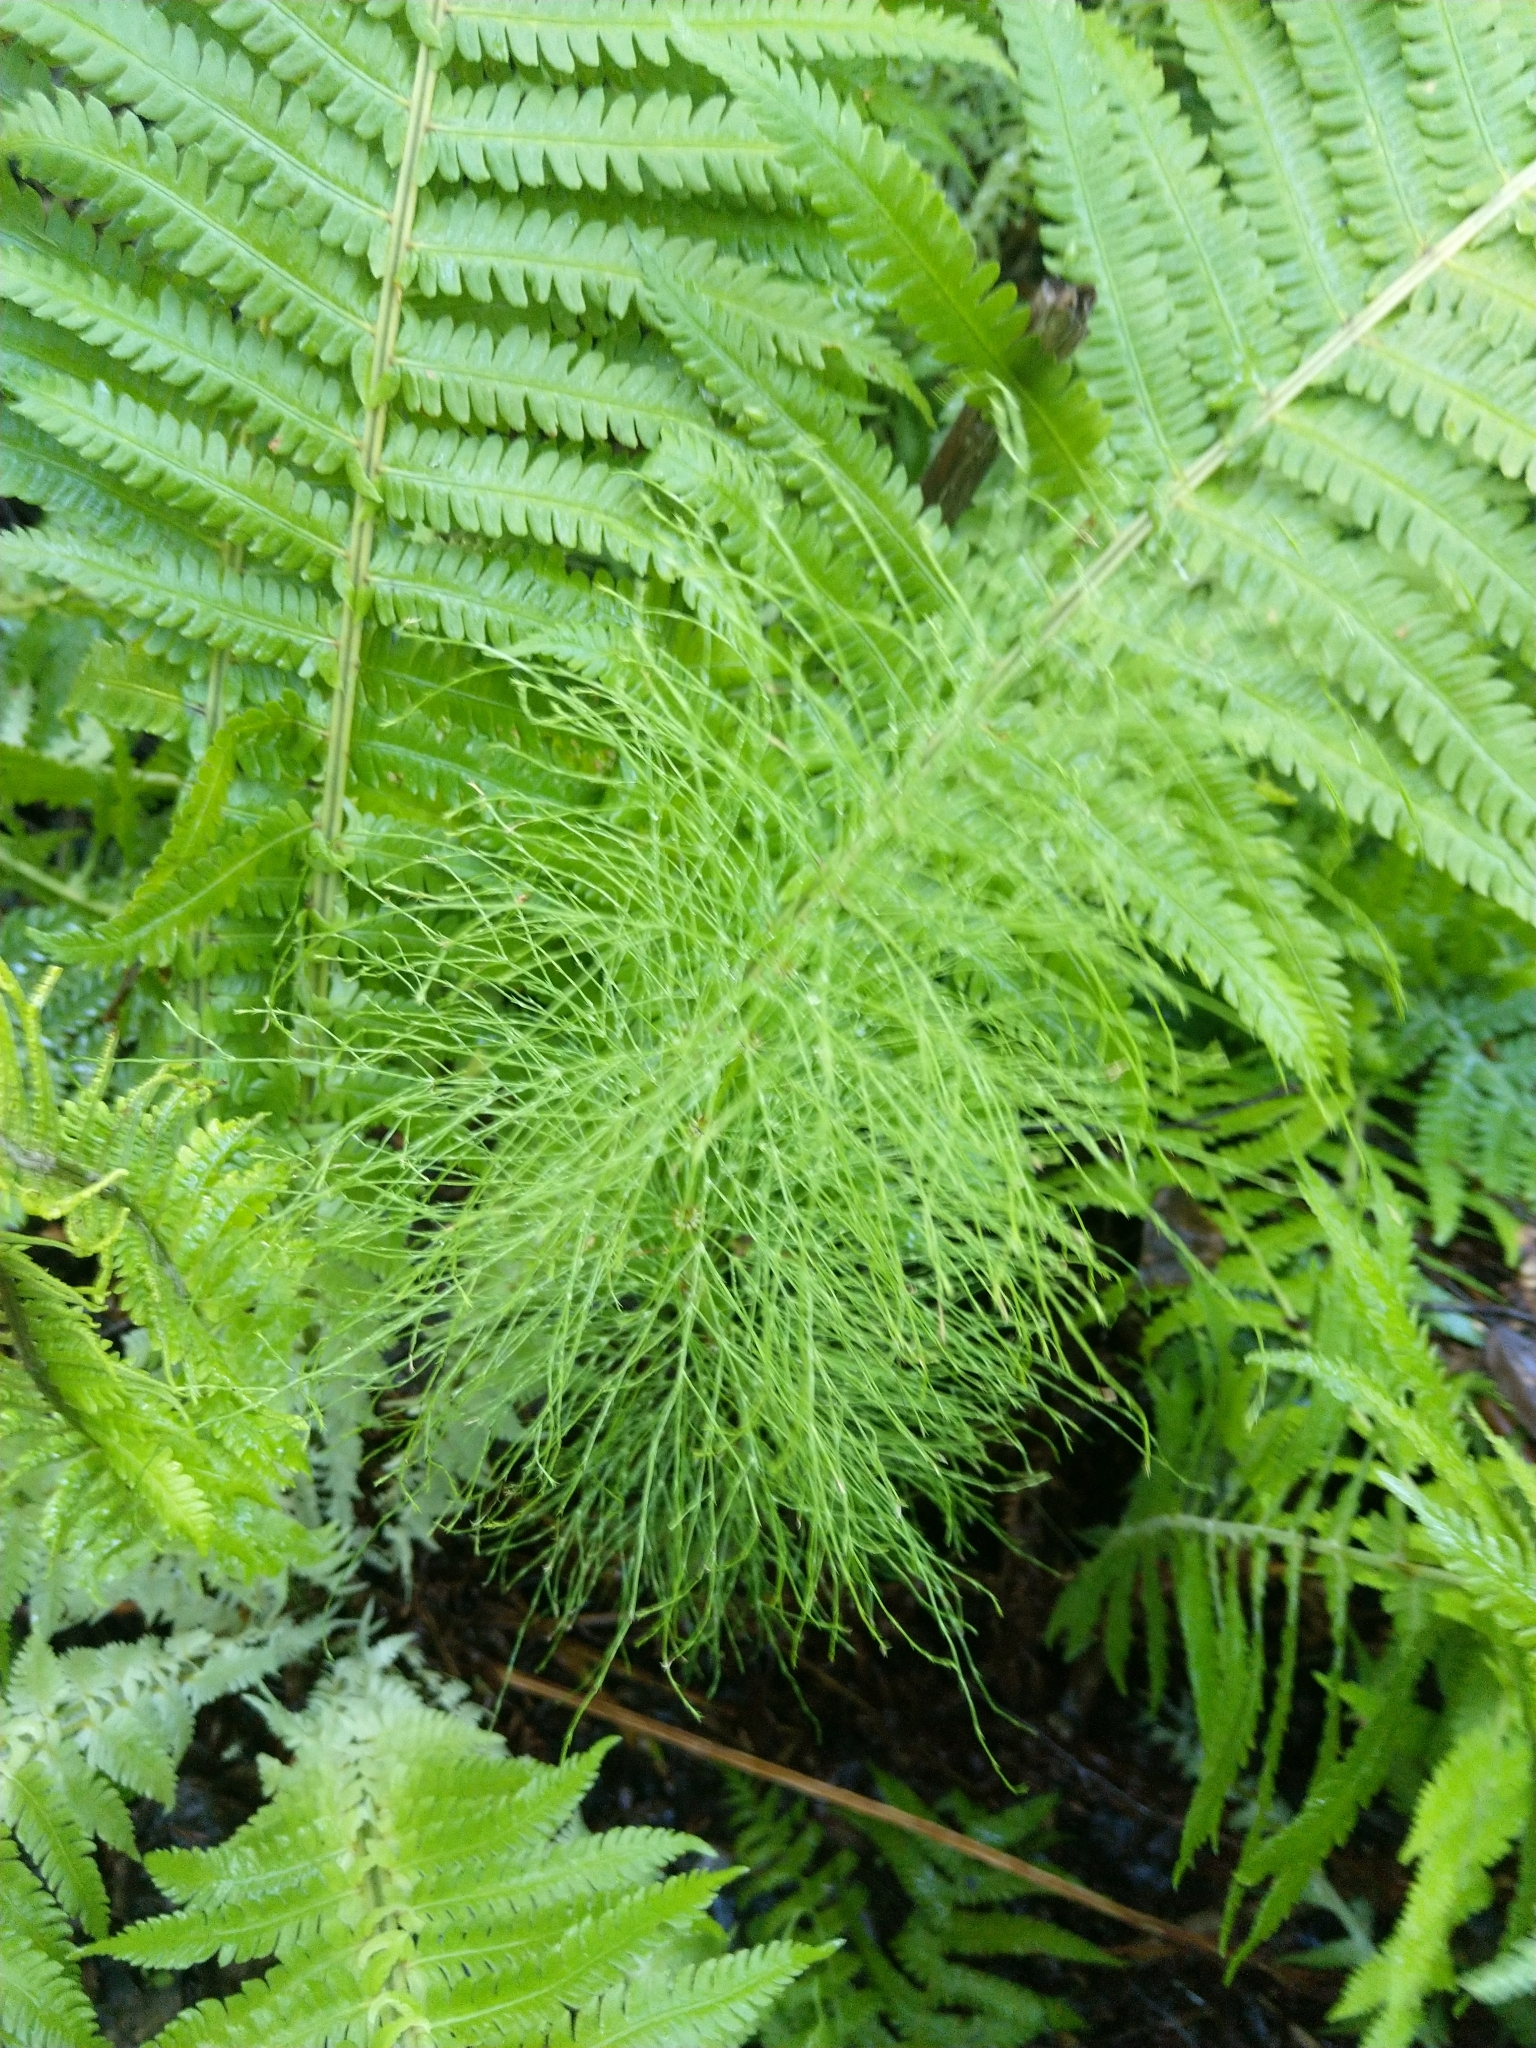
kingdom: Plantae
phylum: Tracheophyta
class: Polypodiopsida
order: Equisetales
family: Equisetaceae
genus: Equisetum
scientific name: Equisetum sylvaticum
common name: Wood horsetail
